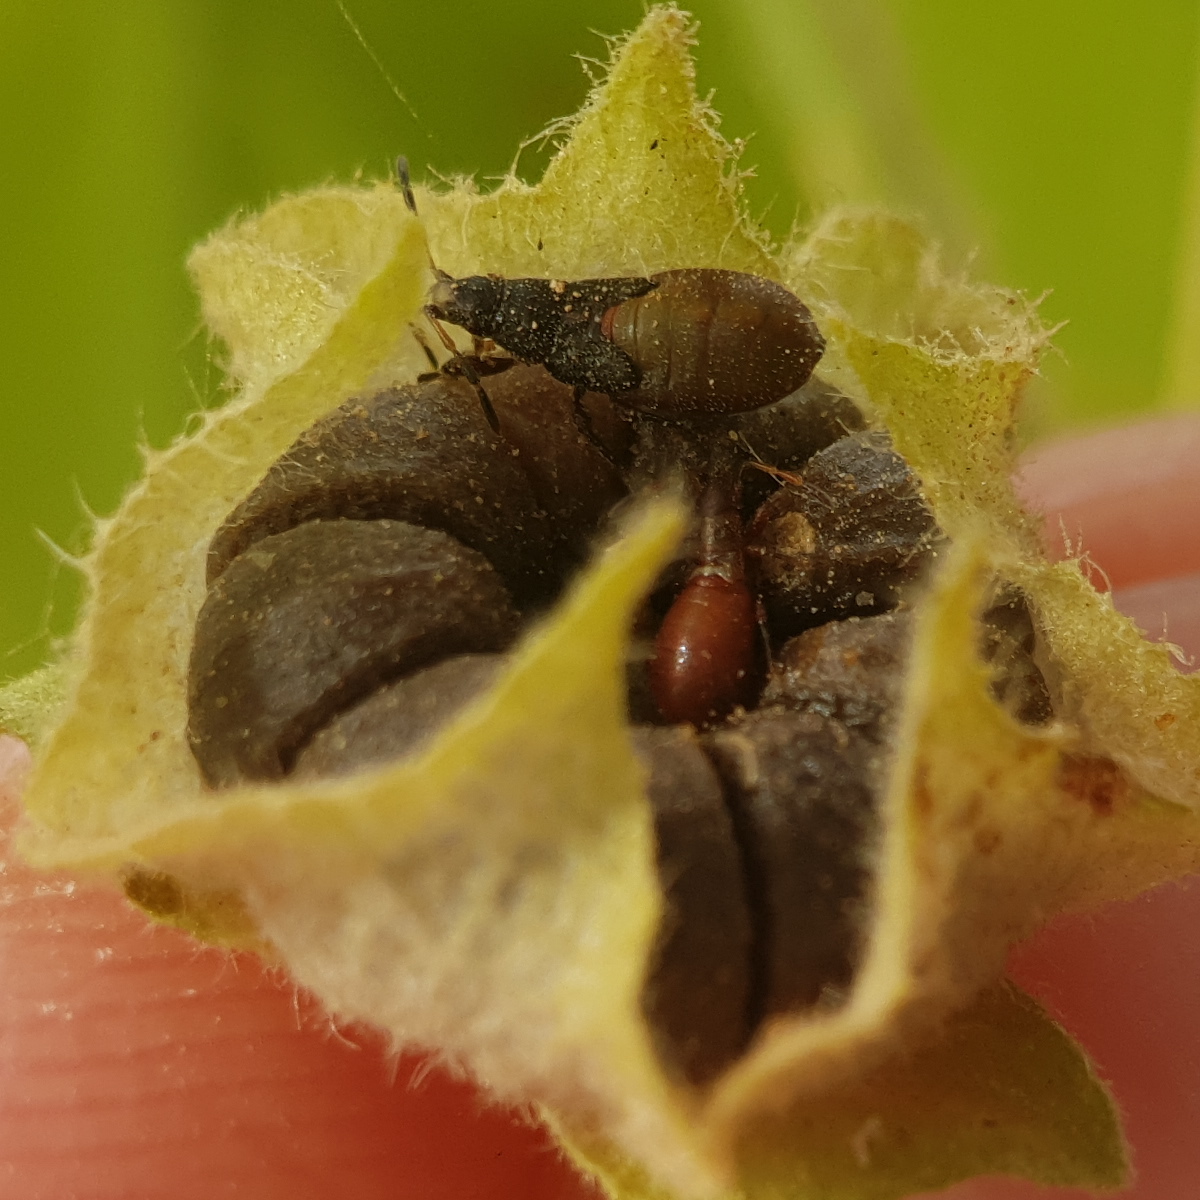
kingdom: Animalia
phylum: Arthropoda
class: Insecta
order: Hemiptera
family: Oxycarenidae
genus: Oxycarenus
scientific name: Oxycarenus hyalinipennis
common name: Cotton seed bug
